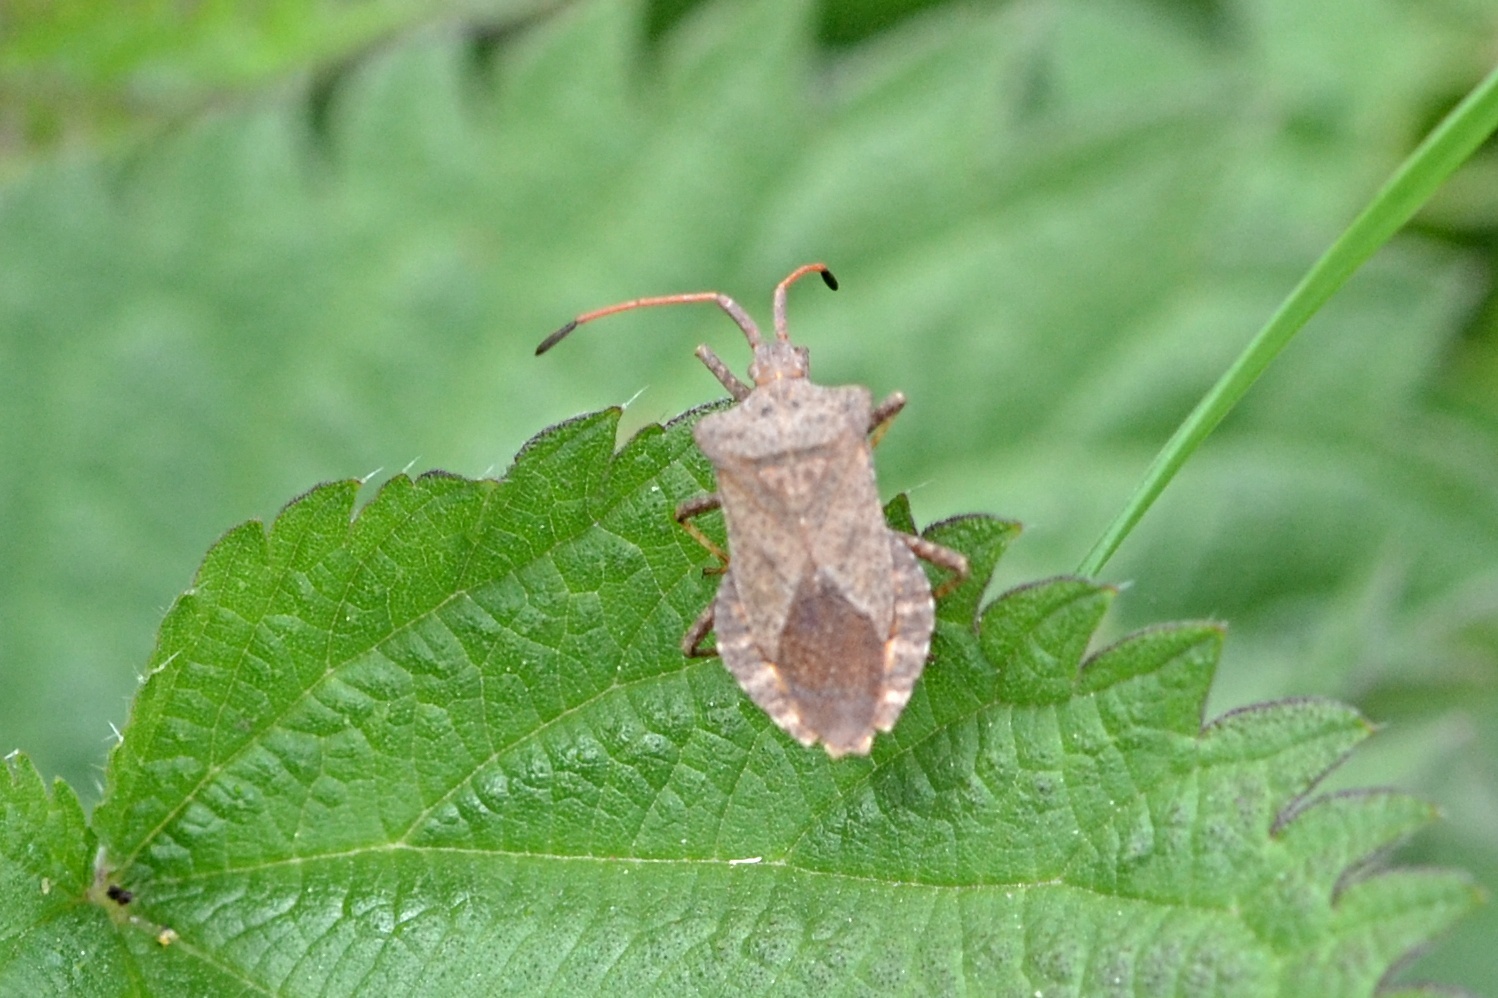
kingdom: Animalia
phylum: Arthropoda
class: Insecta
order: Hemiptera
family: Coreidae
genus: Coreus
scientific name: Coreus marginatus
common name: Dock bug
